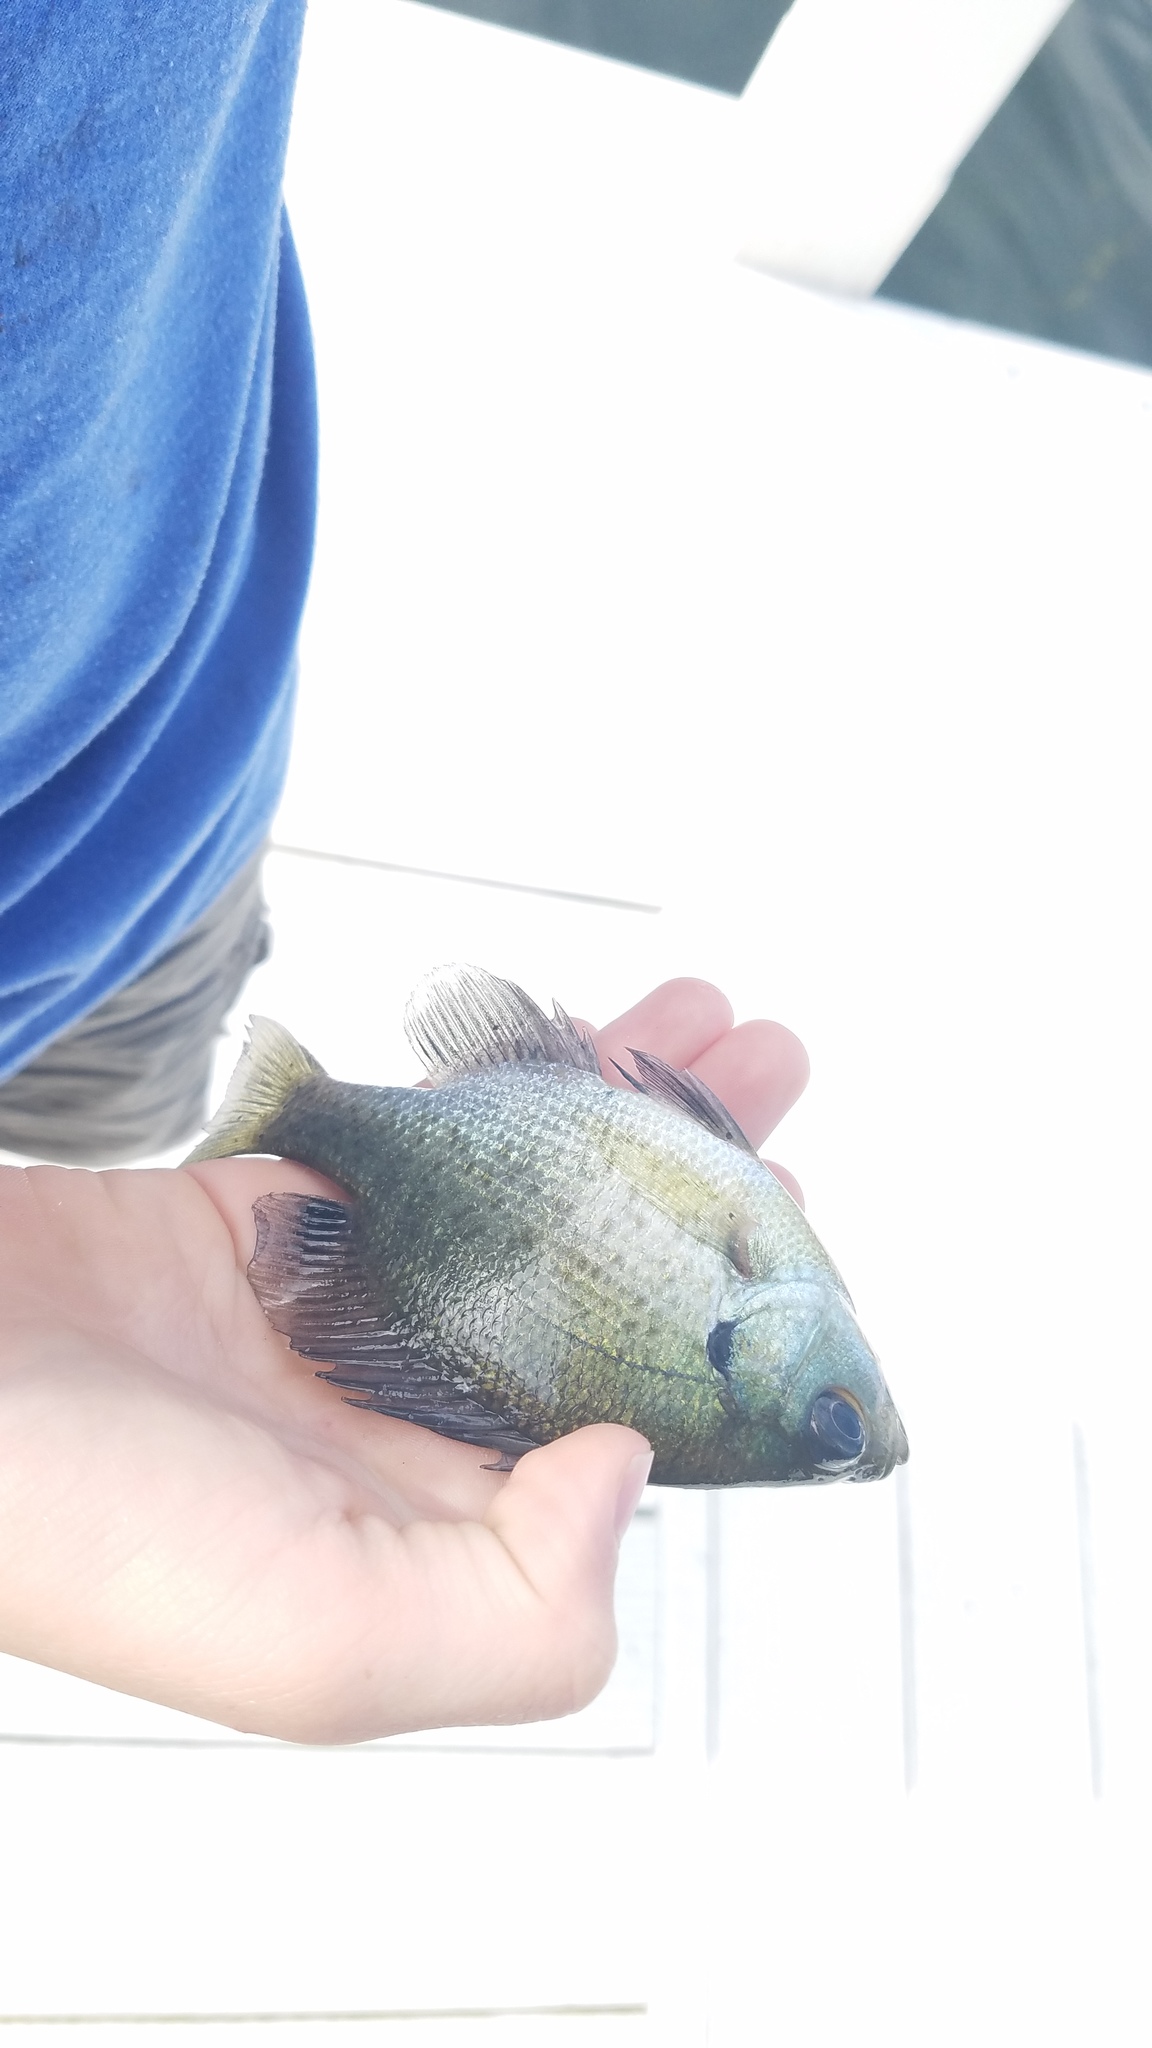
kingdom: Animalia
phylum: Chordata
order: Perciformes
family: Centrarchidae
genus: Lepomis
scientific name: Lepomis macrochirus
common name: Bluegill
